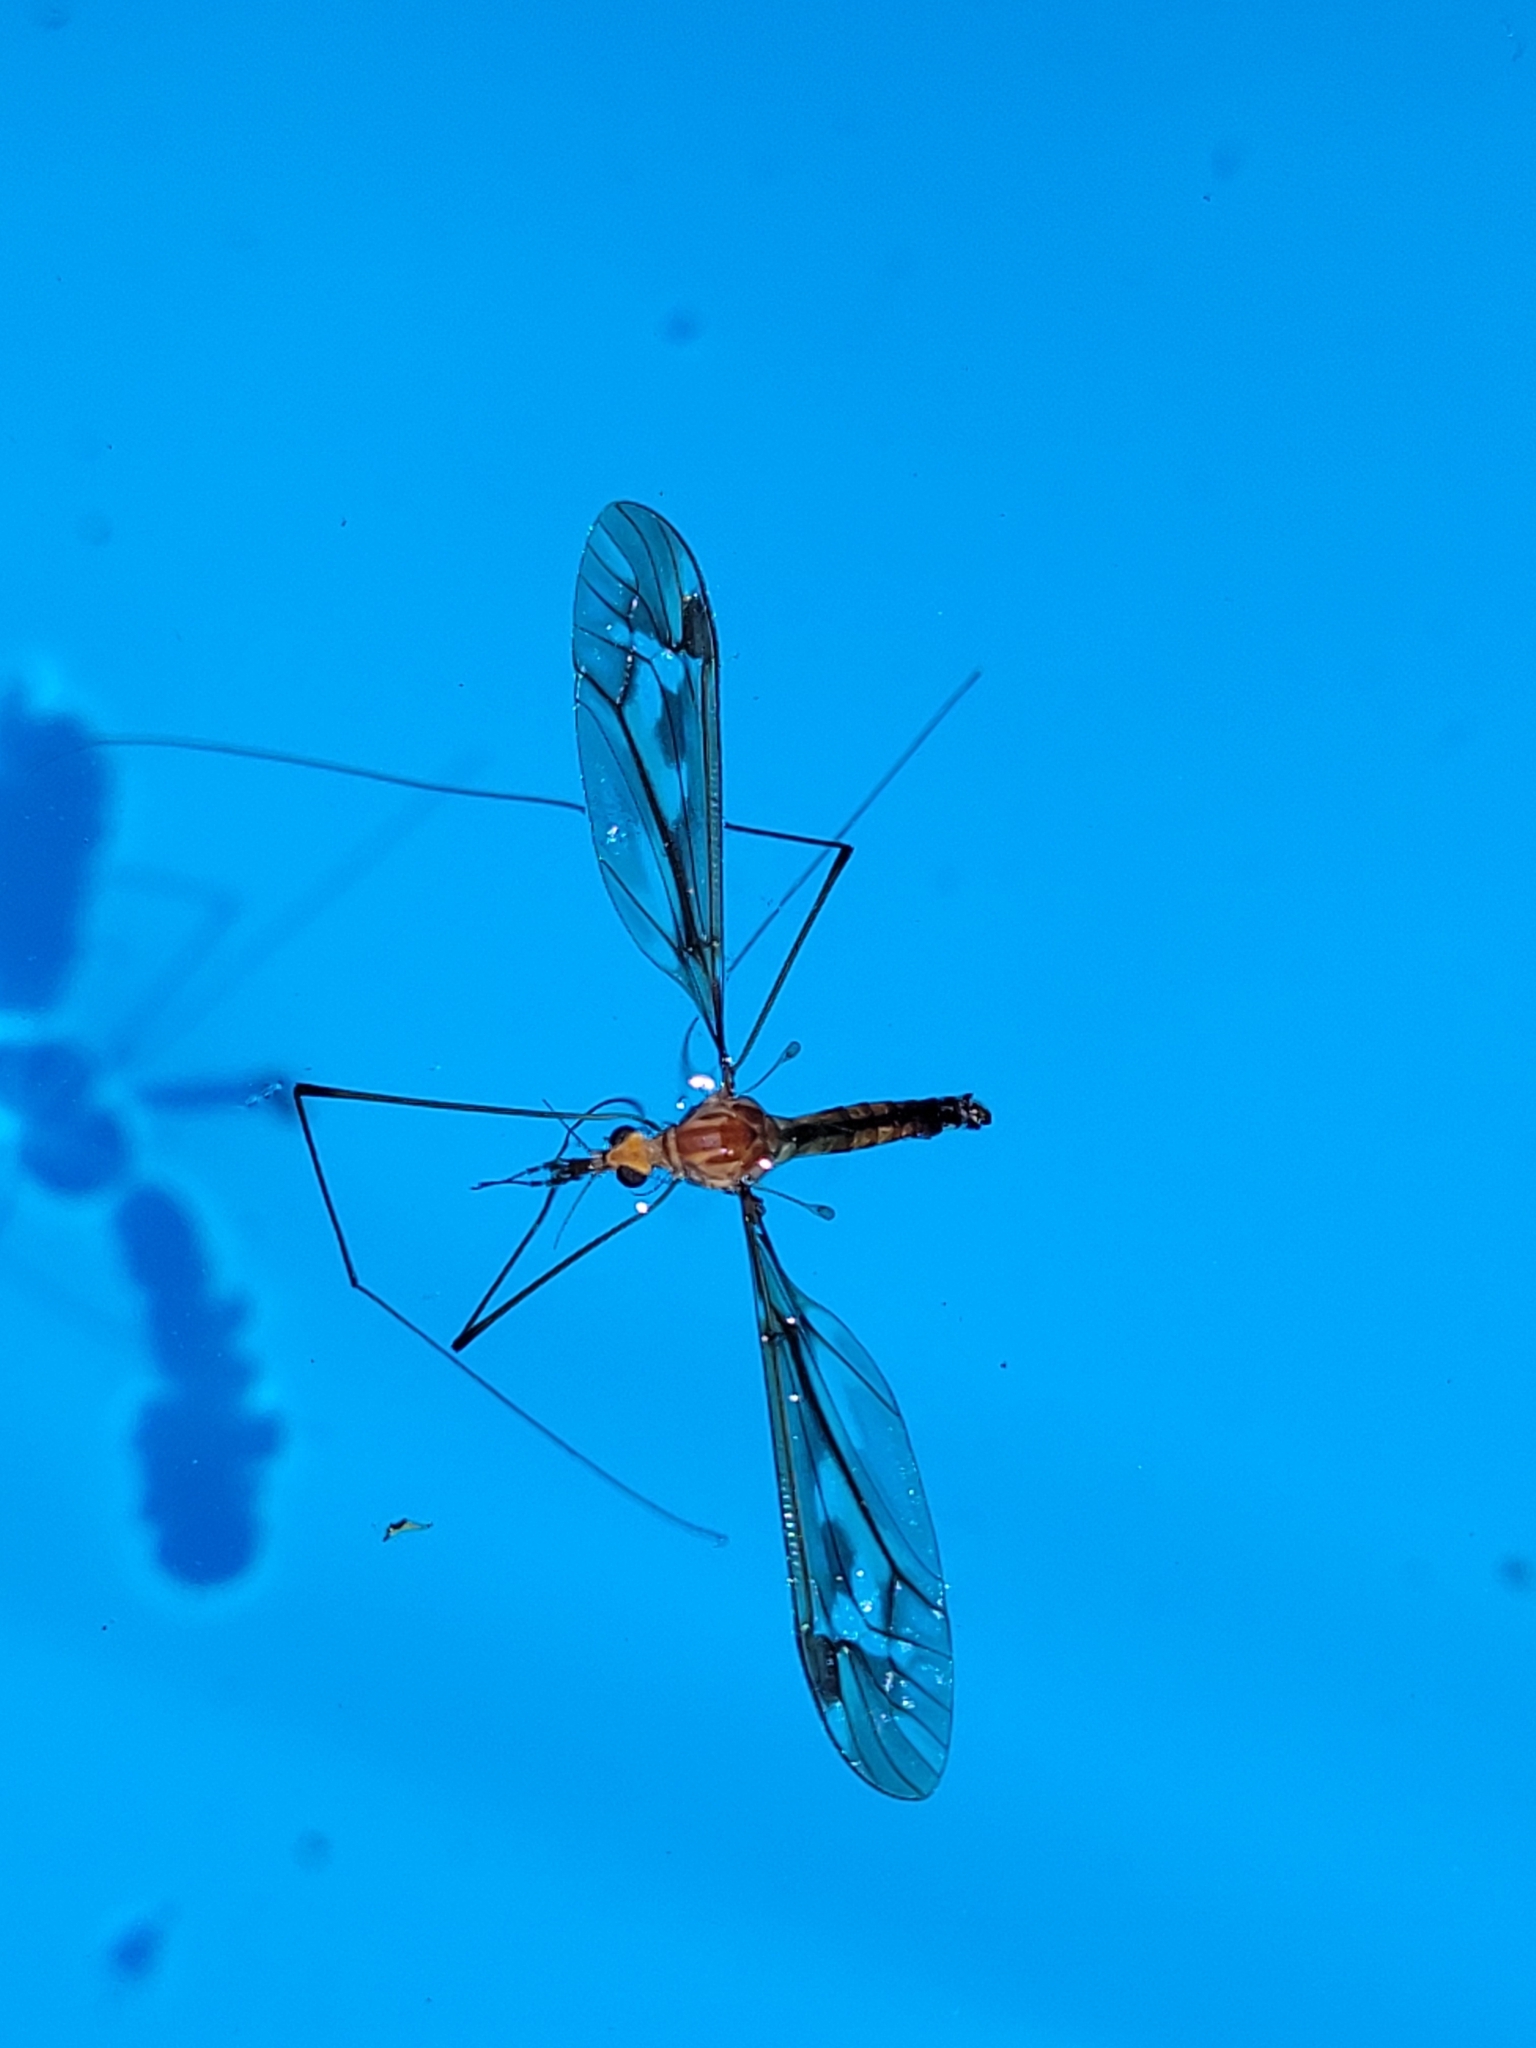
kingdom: Animalia
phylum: Arthropoda
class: Insecta
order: Diptera
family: Tipulidae
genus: Leptotarsus
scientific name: Leptotarsus huttoni
